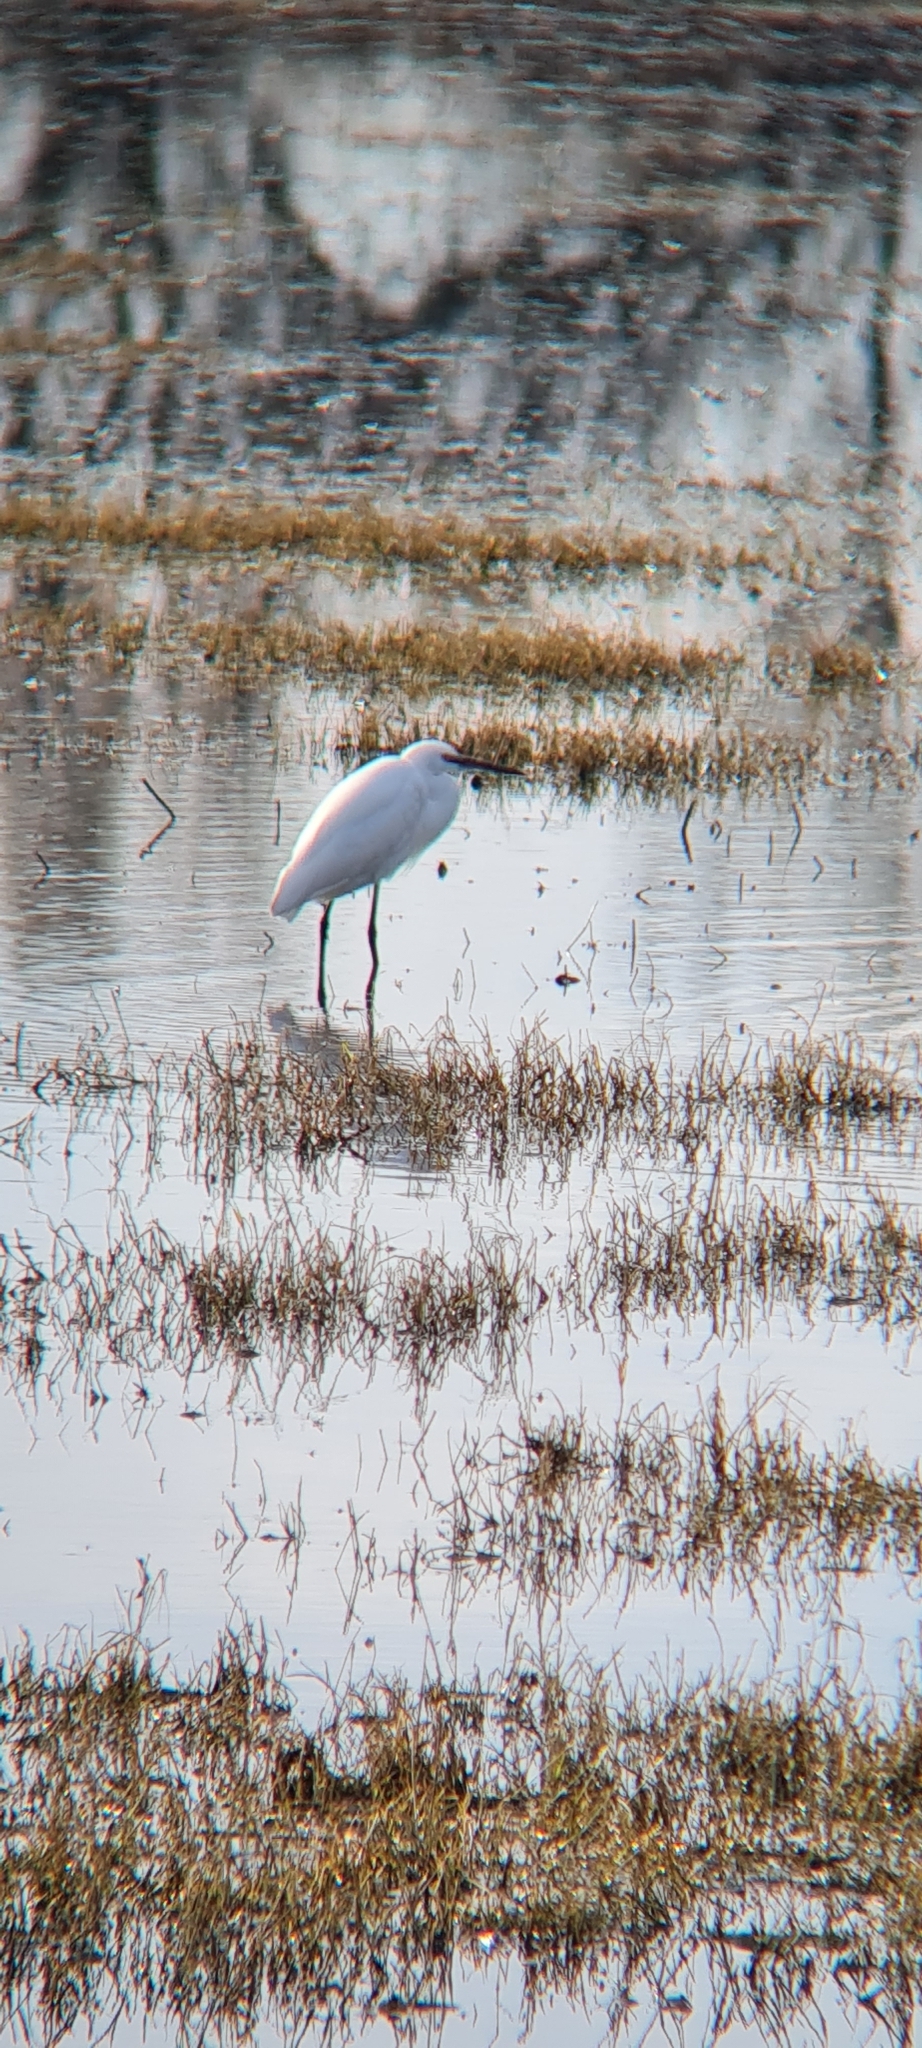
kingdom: Animalia
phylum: Chordata
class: Aves
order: Pelecaniformes
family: Ardeidae
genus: Egretta
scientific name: Egretta garzetta
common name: Little egret
